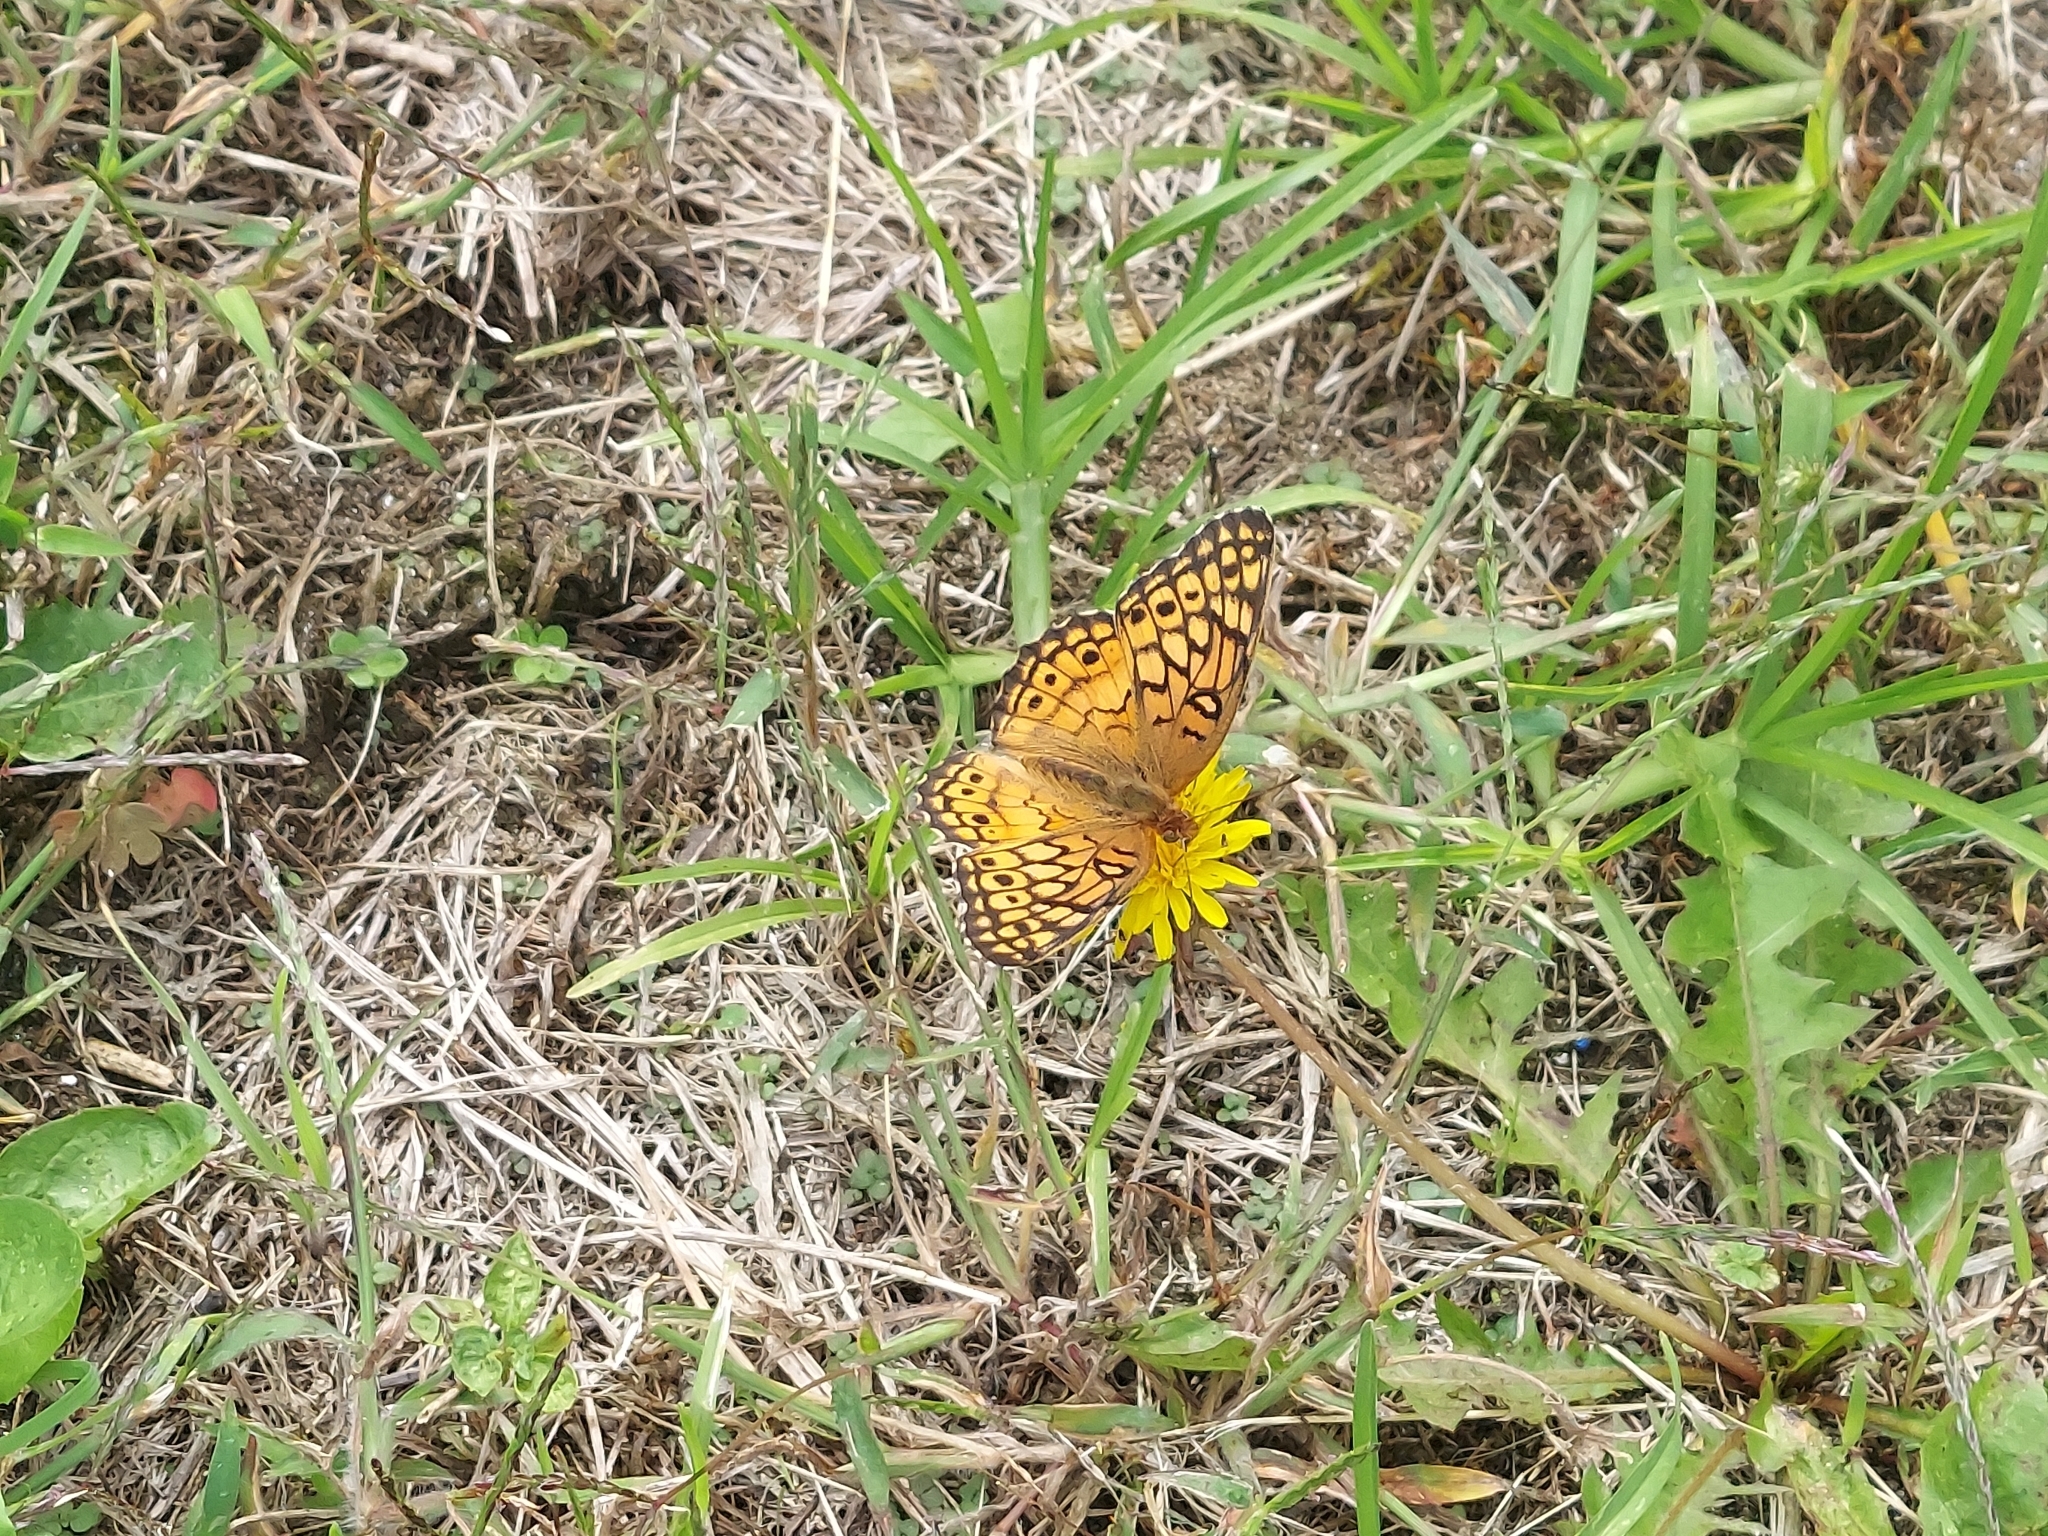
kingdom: Animalia
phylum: Arthropoda
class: Insecta
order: Lepidoptera
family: Nymphalidae
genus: Euptoieta
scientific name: Euptoieta claudia
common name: Variegated fritillary
